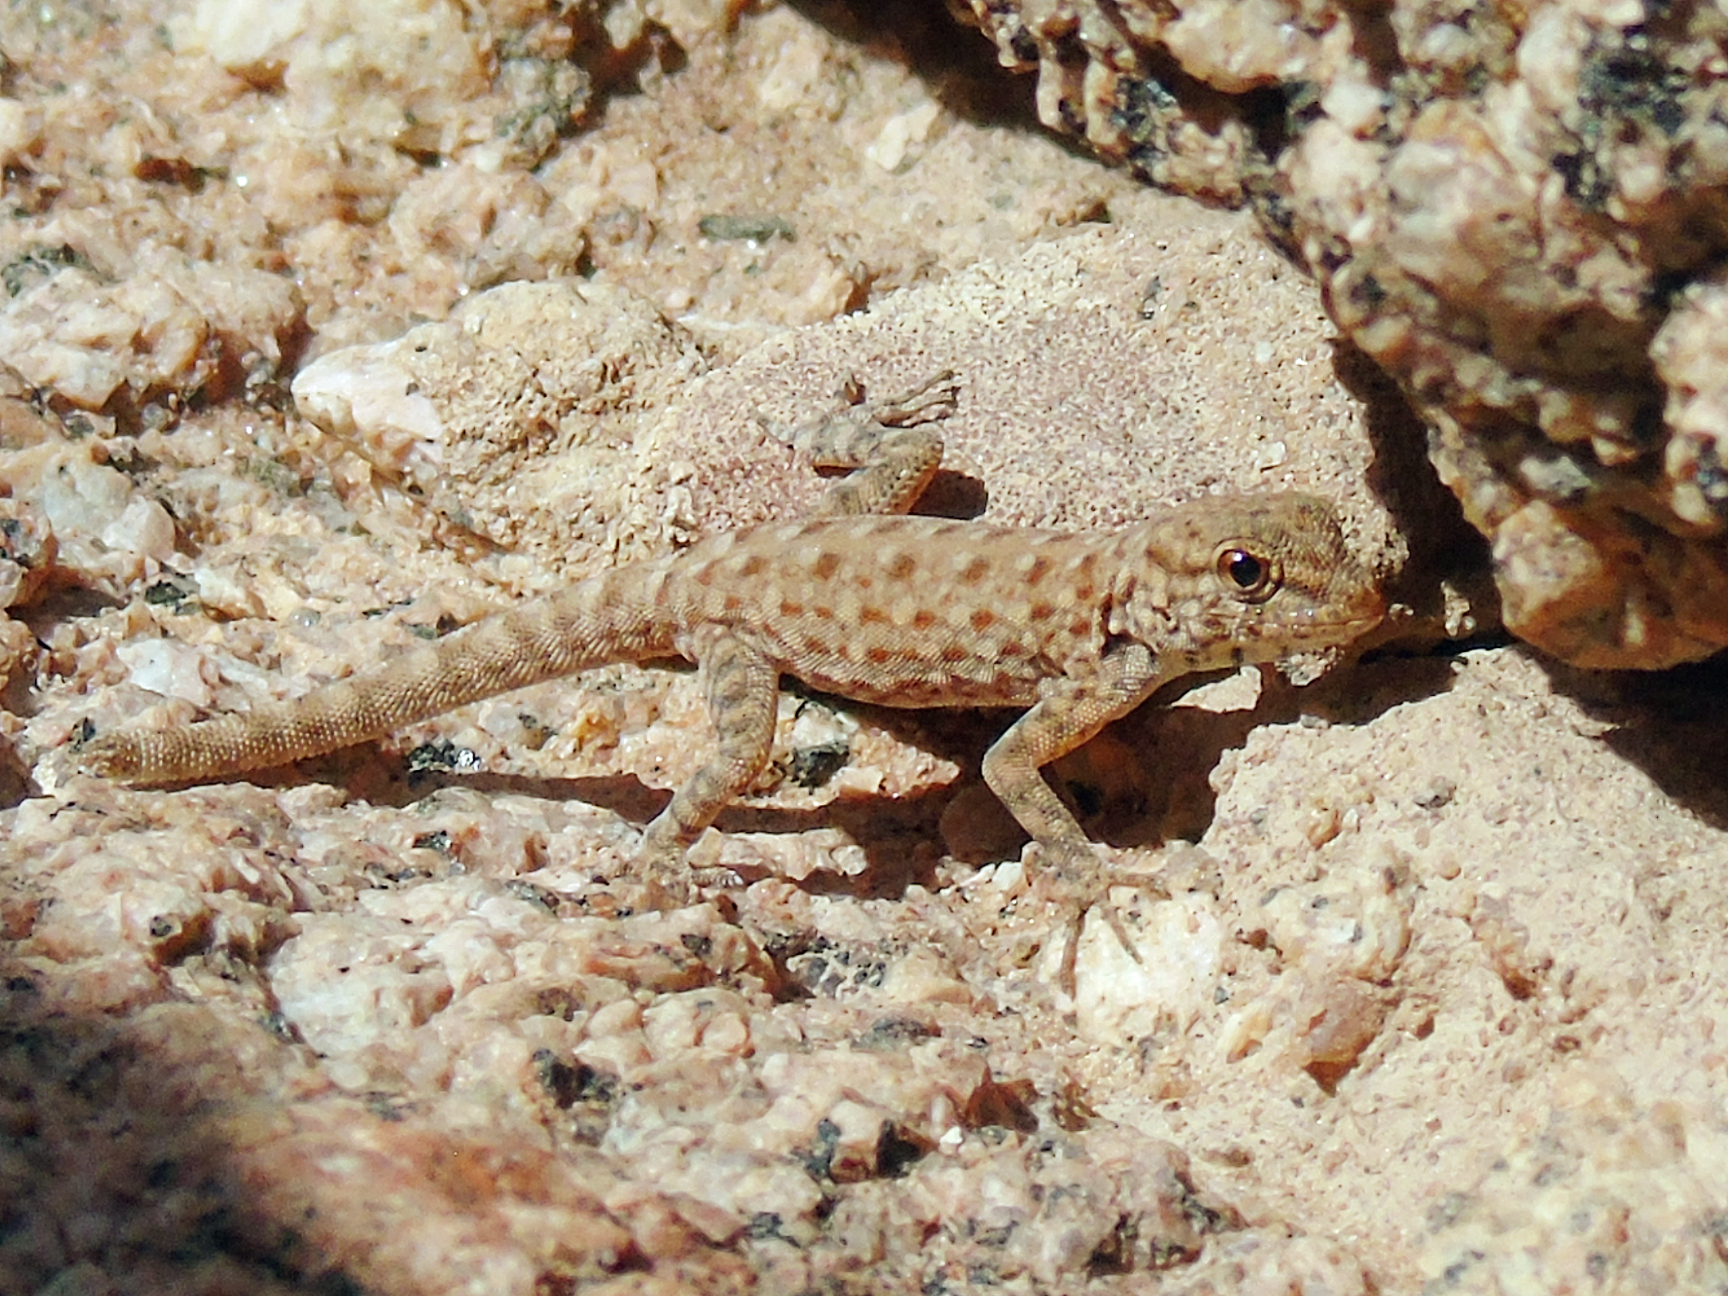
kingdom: Animalia
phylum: Chordata
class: Squamata
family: Sphaerodactylidae
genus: Pristurus
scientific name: Pristurus rupestris
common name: Blanford’s semaphore gecko
